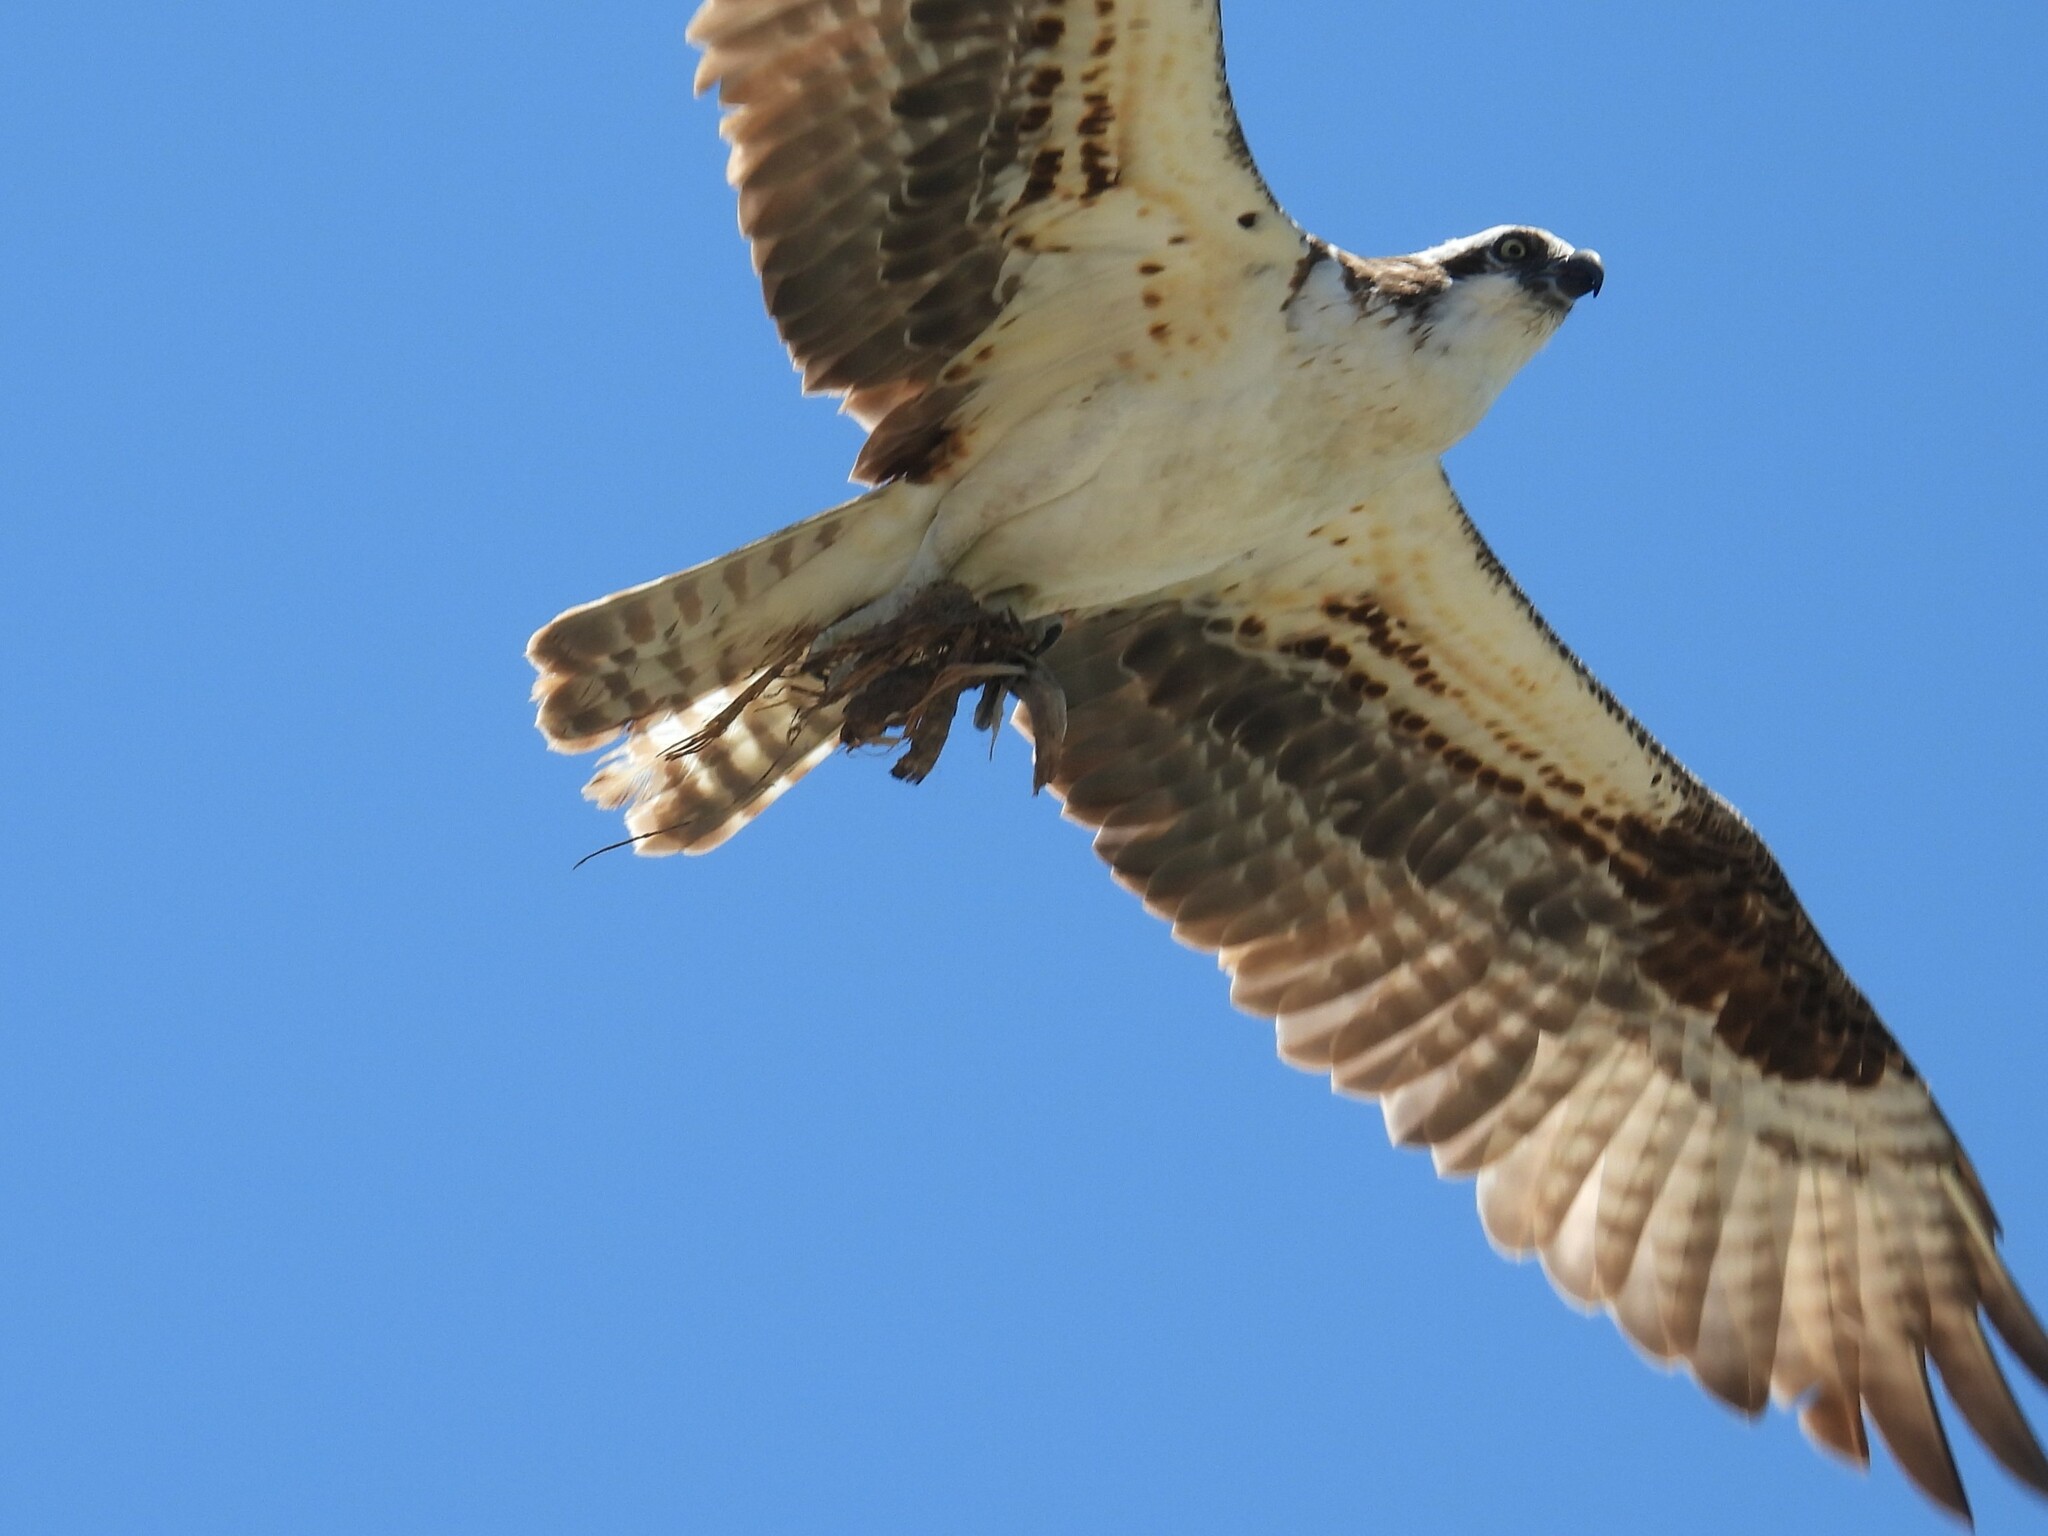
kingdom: Animalia
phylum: Chordata
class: Aves
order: Accipitriformes
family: Pandionidae
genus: Pandion
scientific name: Pandion haliaetus
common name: Osprey
